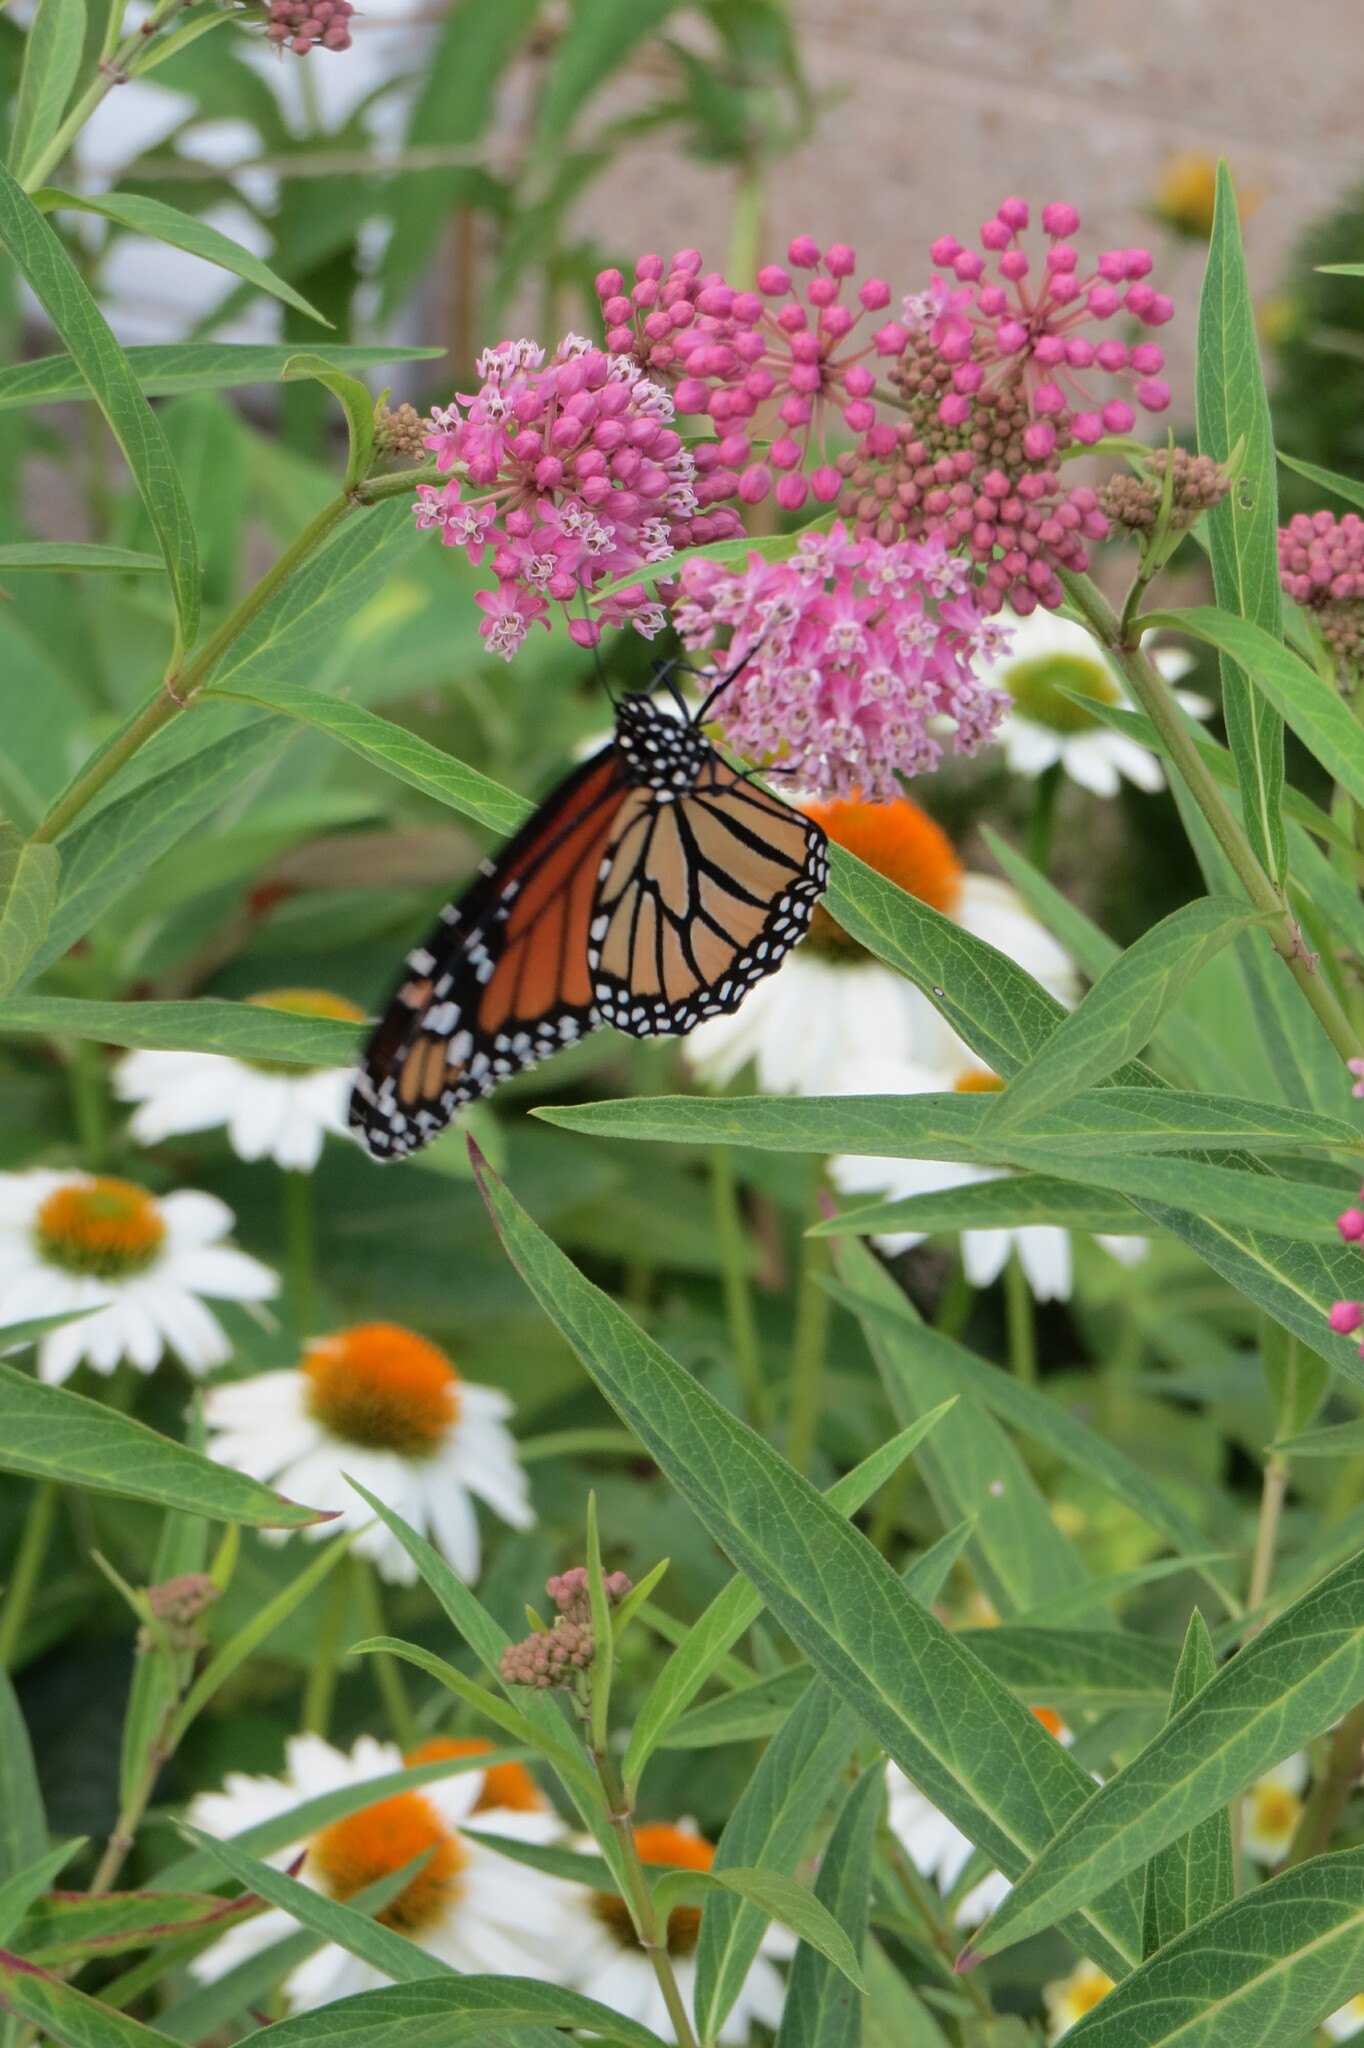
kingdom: Animalia
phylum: Arthropoda
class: Insecta
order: Lepidoptera
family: Nymphalidae
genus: Danaus
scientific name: Danaus plexippus
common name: Monarch
